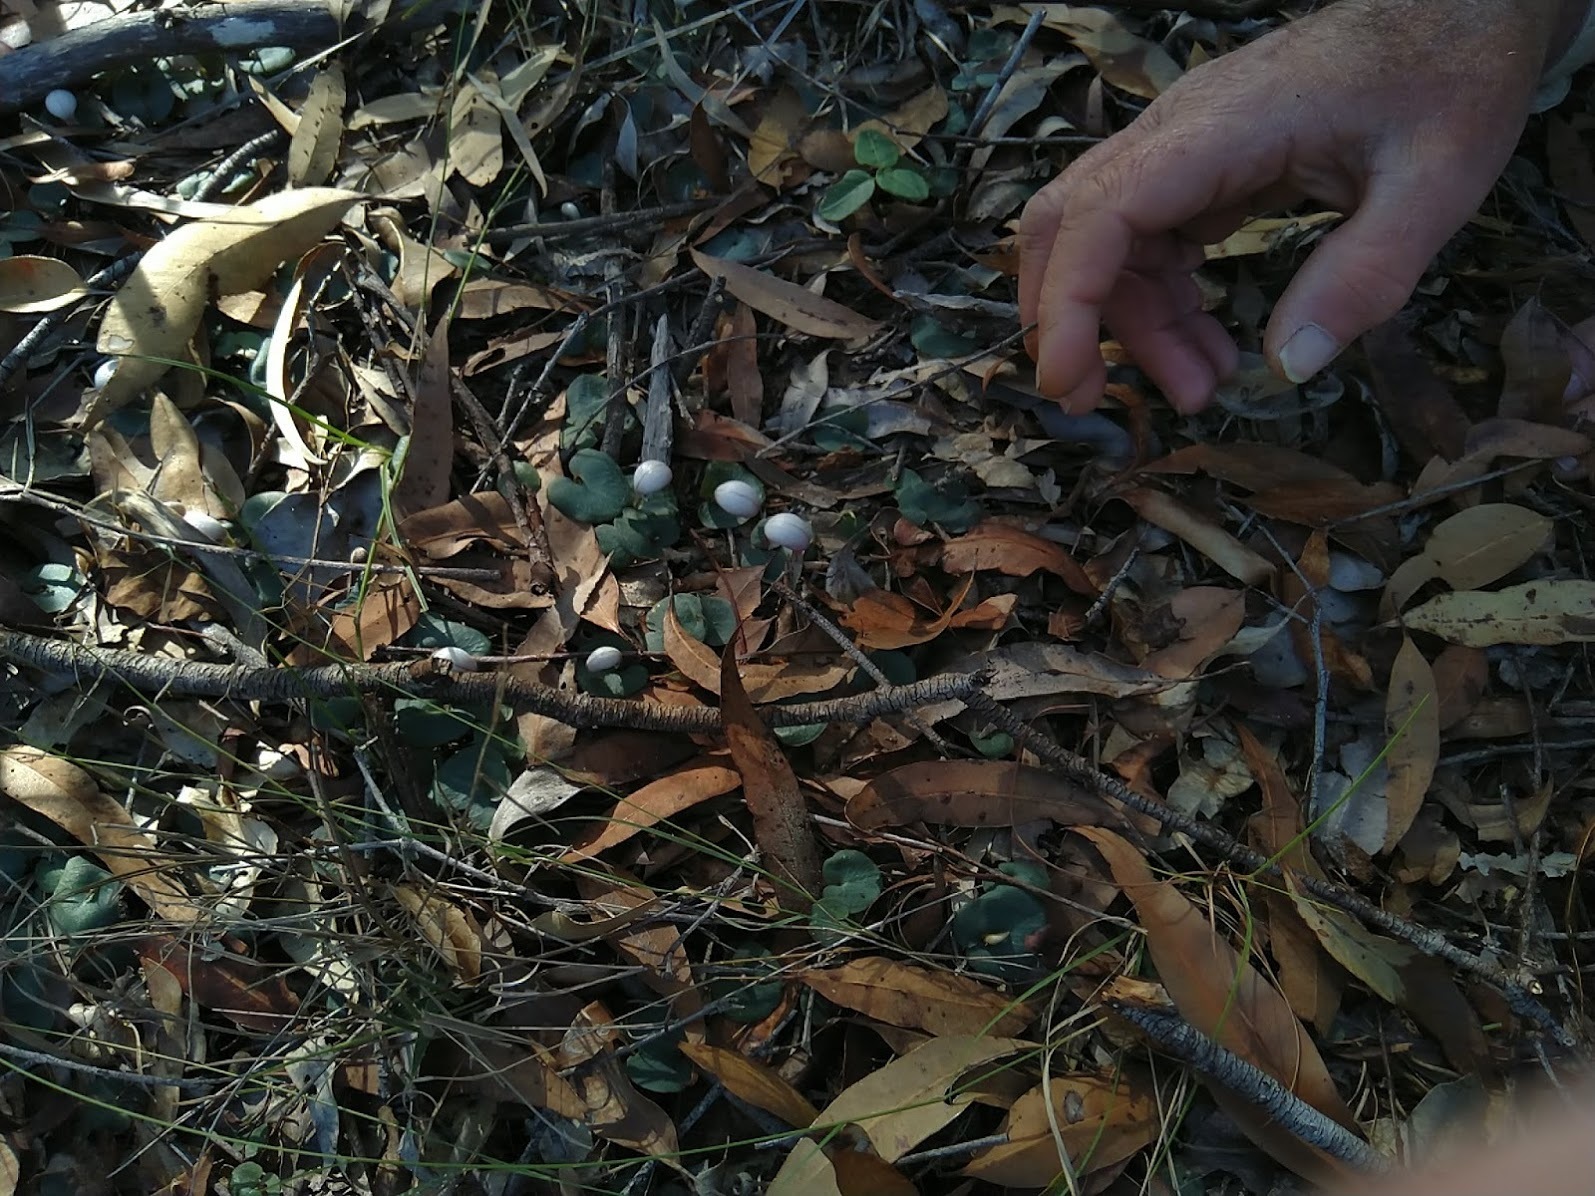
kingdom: Plantae
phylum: Tracheophyta
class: Liliopsida
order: Asparagales
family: Orchidaceae
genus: Corybas
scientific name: Corybas barbarae
